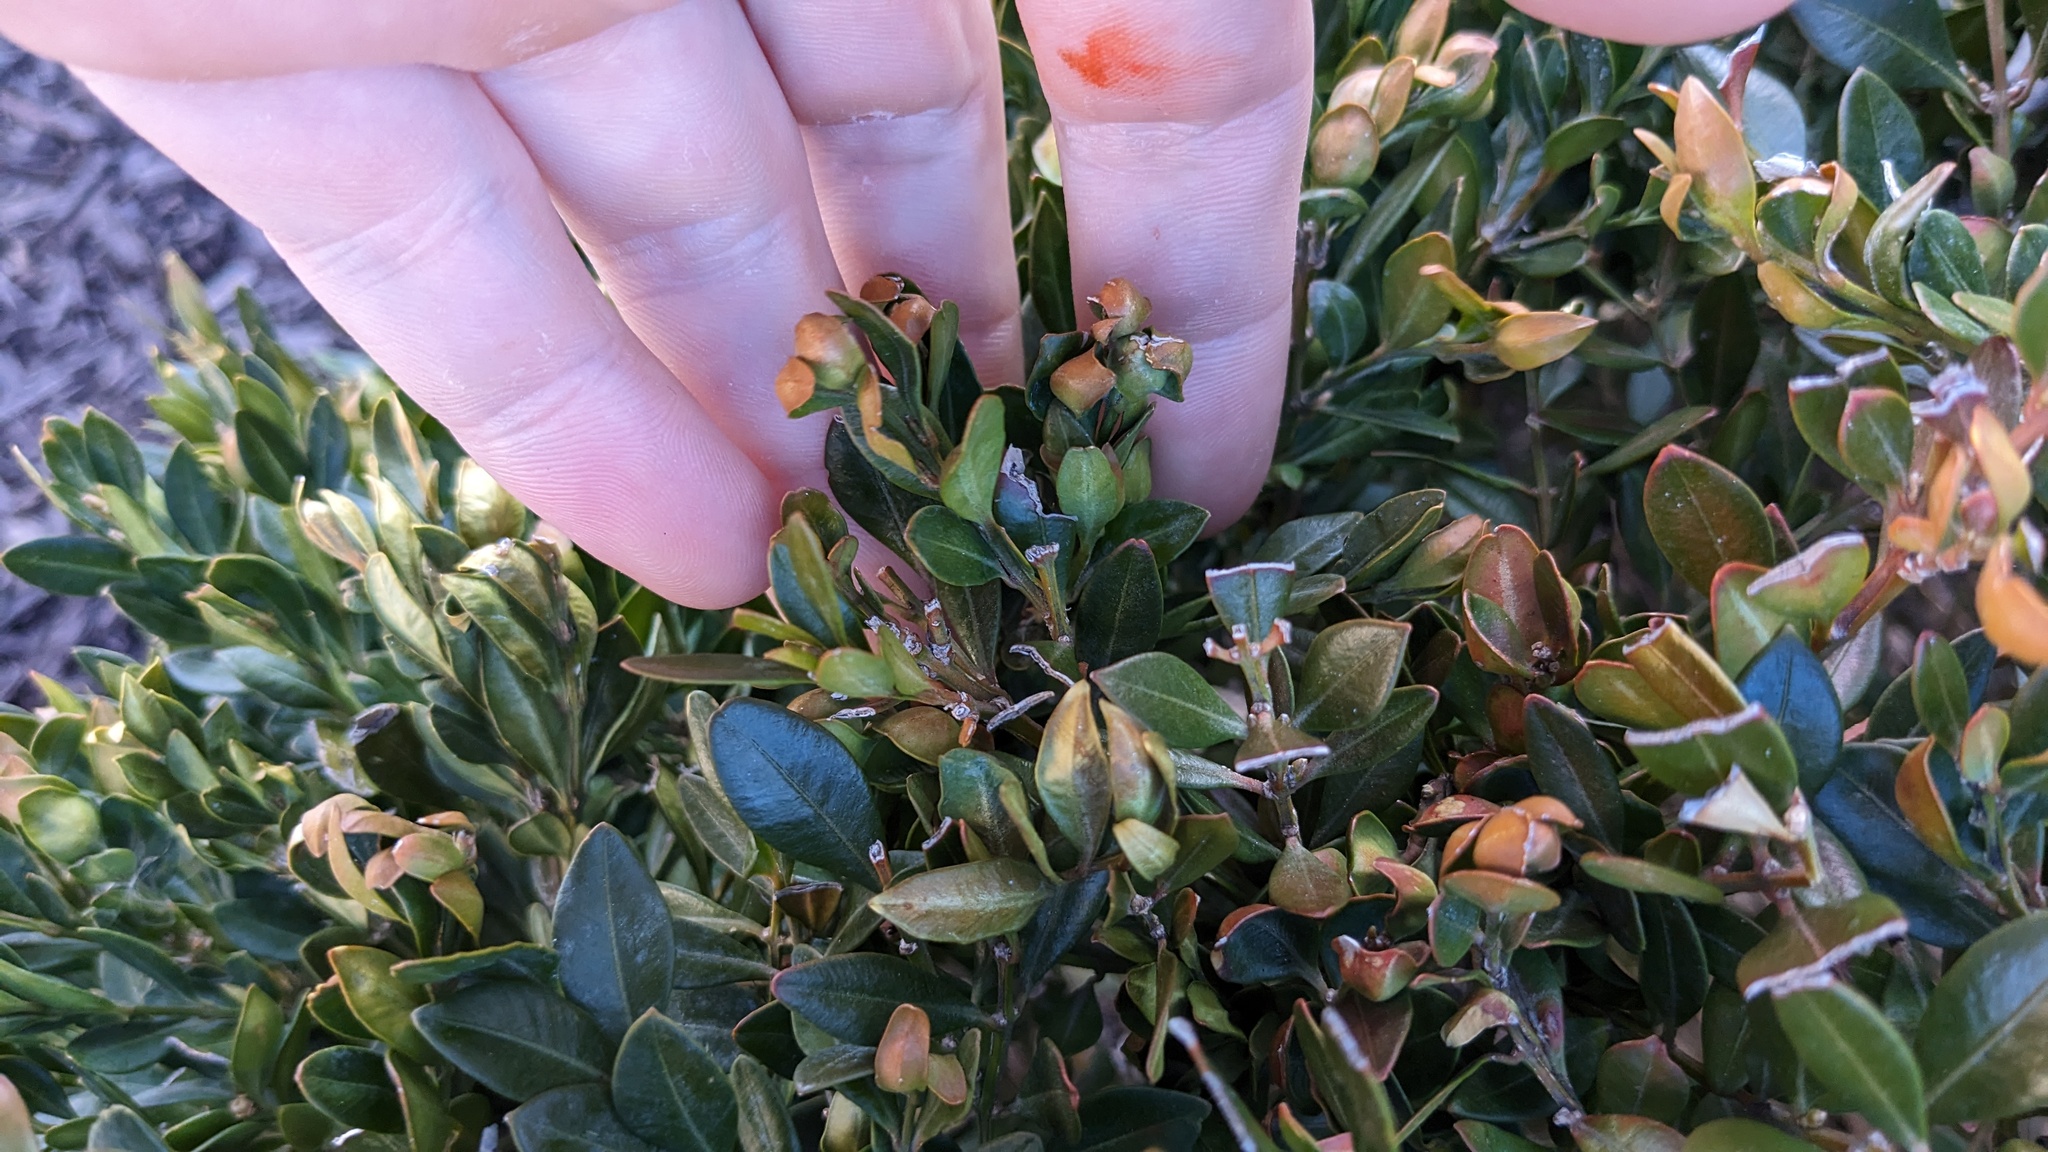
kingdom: Animalia
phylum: Arthropoda
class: Insecta
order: Hemiptera
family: Psyllidae
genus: Psylla
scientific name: Psylla buxi
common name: Boxwood psyllid
